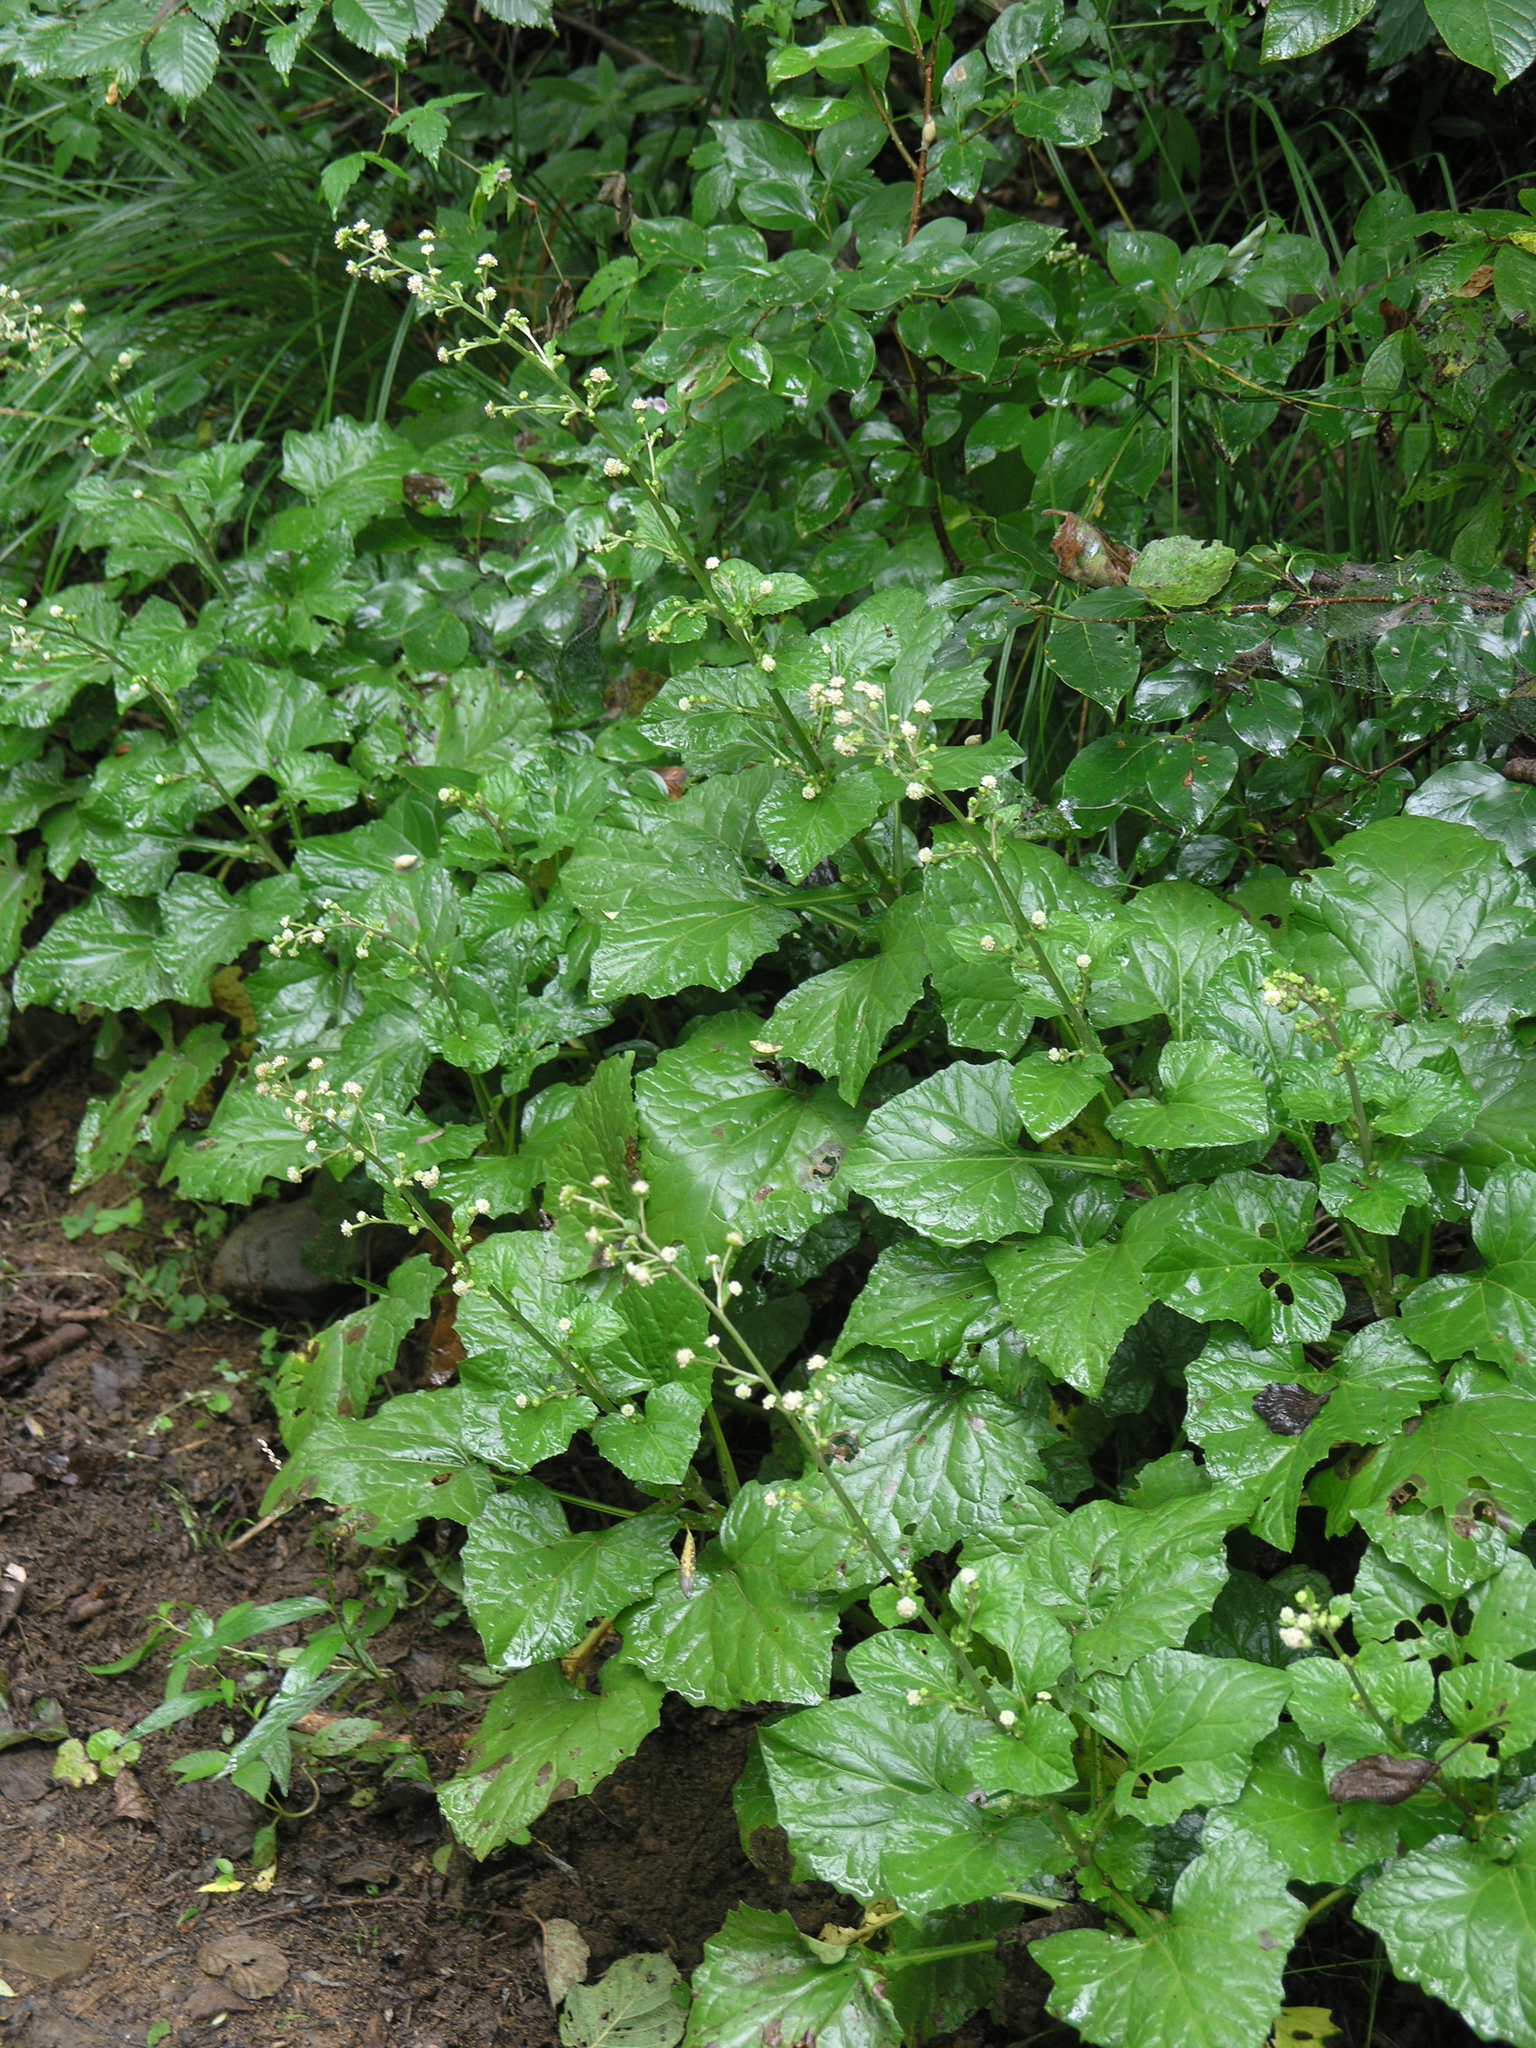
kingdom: Plantae
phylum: Tracheophyta
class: Magnoliopsida
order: Asterales
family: Asteraceae
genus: Adenocaulon
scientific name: Adenocaulon himalaicum
